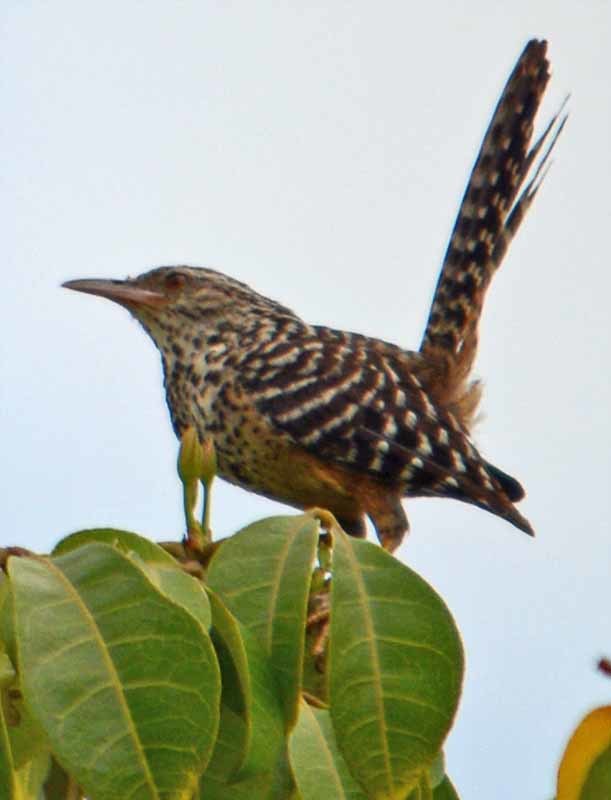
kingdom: Animalia
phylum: Chordata
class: Aves
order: Passeriformes
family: Troglodytidae
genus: Campylorhynchus
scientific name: Campylorhynchus zonatus
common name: Band-backed wren
